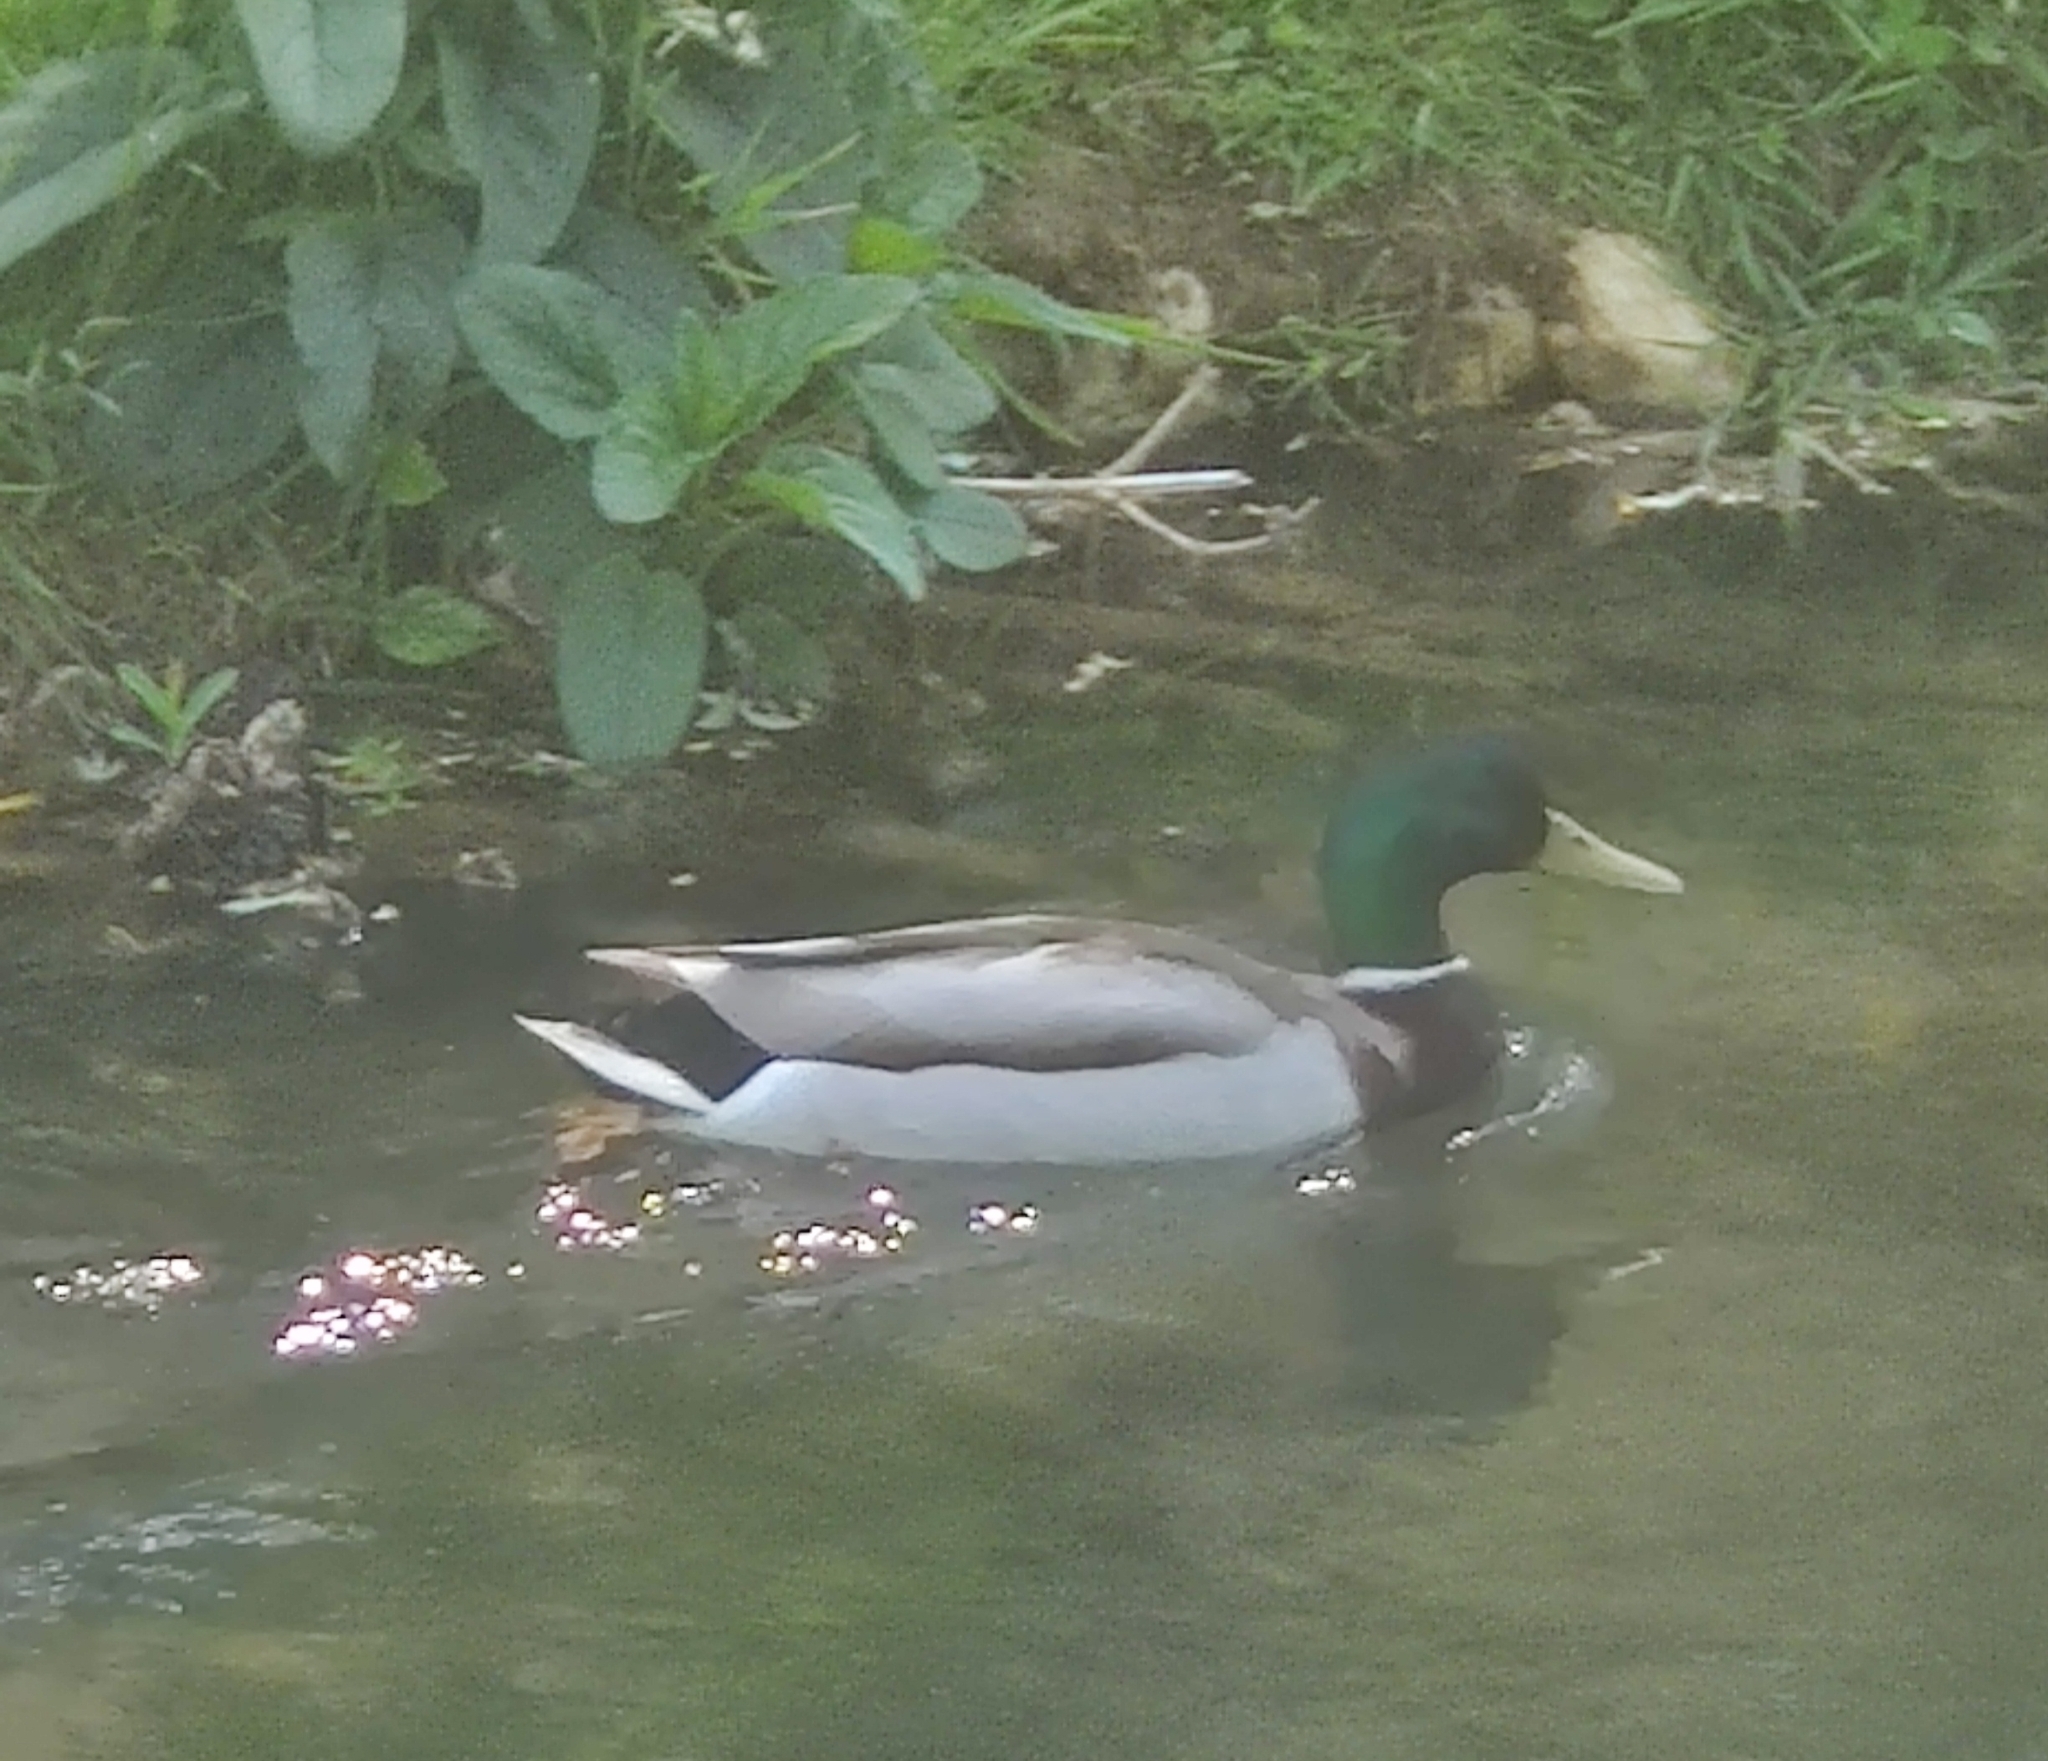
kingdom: Animalia
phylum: Chordata
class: Aves
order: Anseriformes
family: Anatidae
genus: Anas
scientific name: Anas platyrhynchos
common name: Mallard
